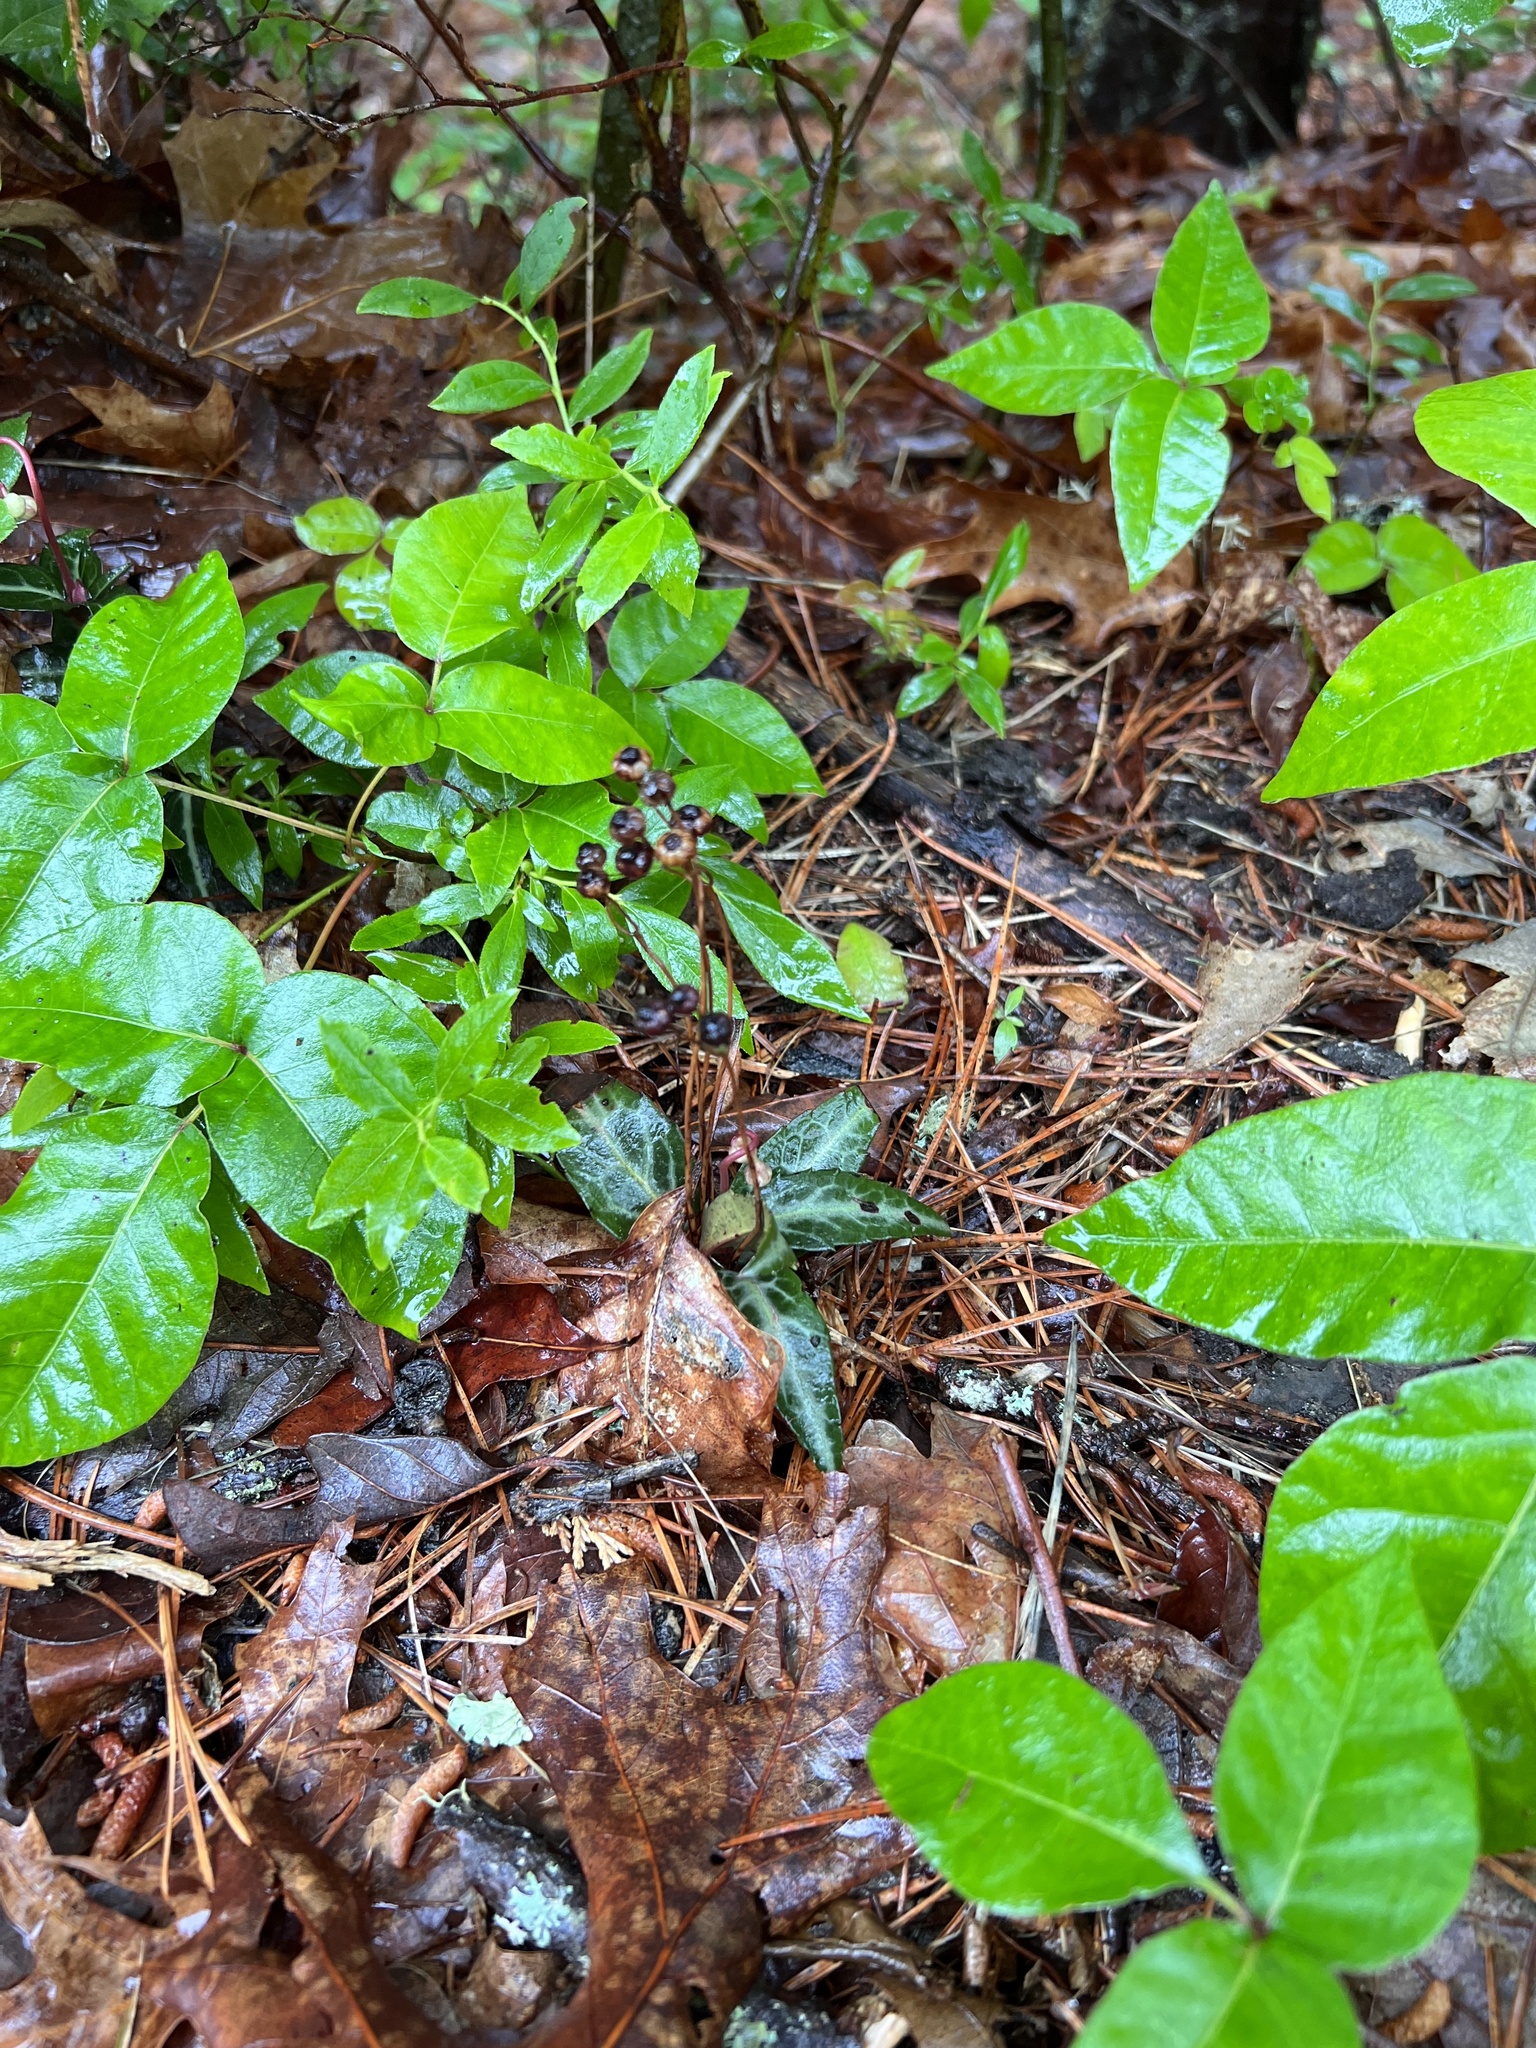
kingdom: Plantae
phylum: Tracheophyta
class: Magnoliopsida
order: Ericales
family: Ericaceae
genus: Chimaphila
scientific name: Chimaphila maculata
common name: Spotted pipsissewa
